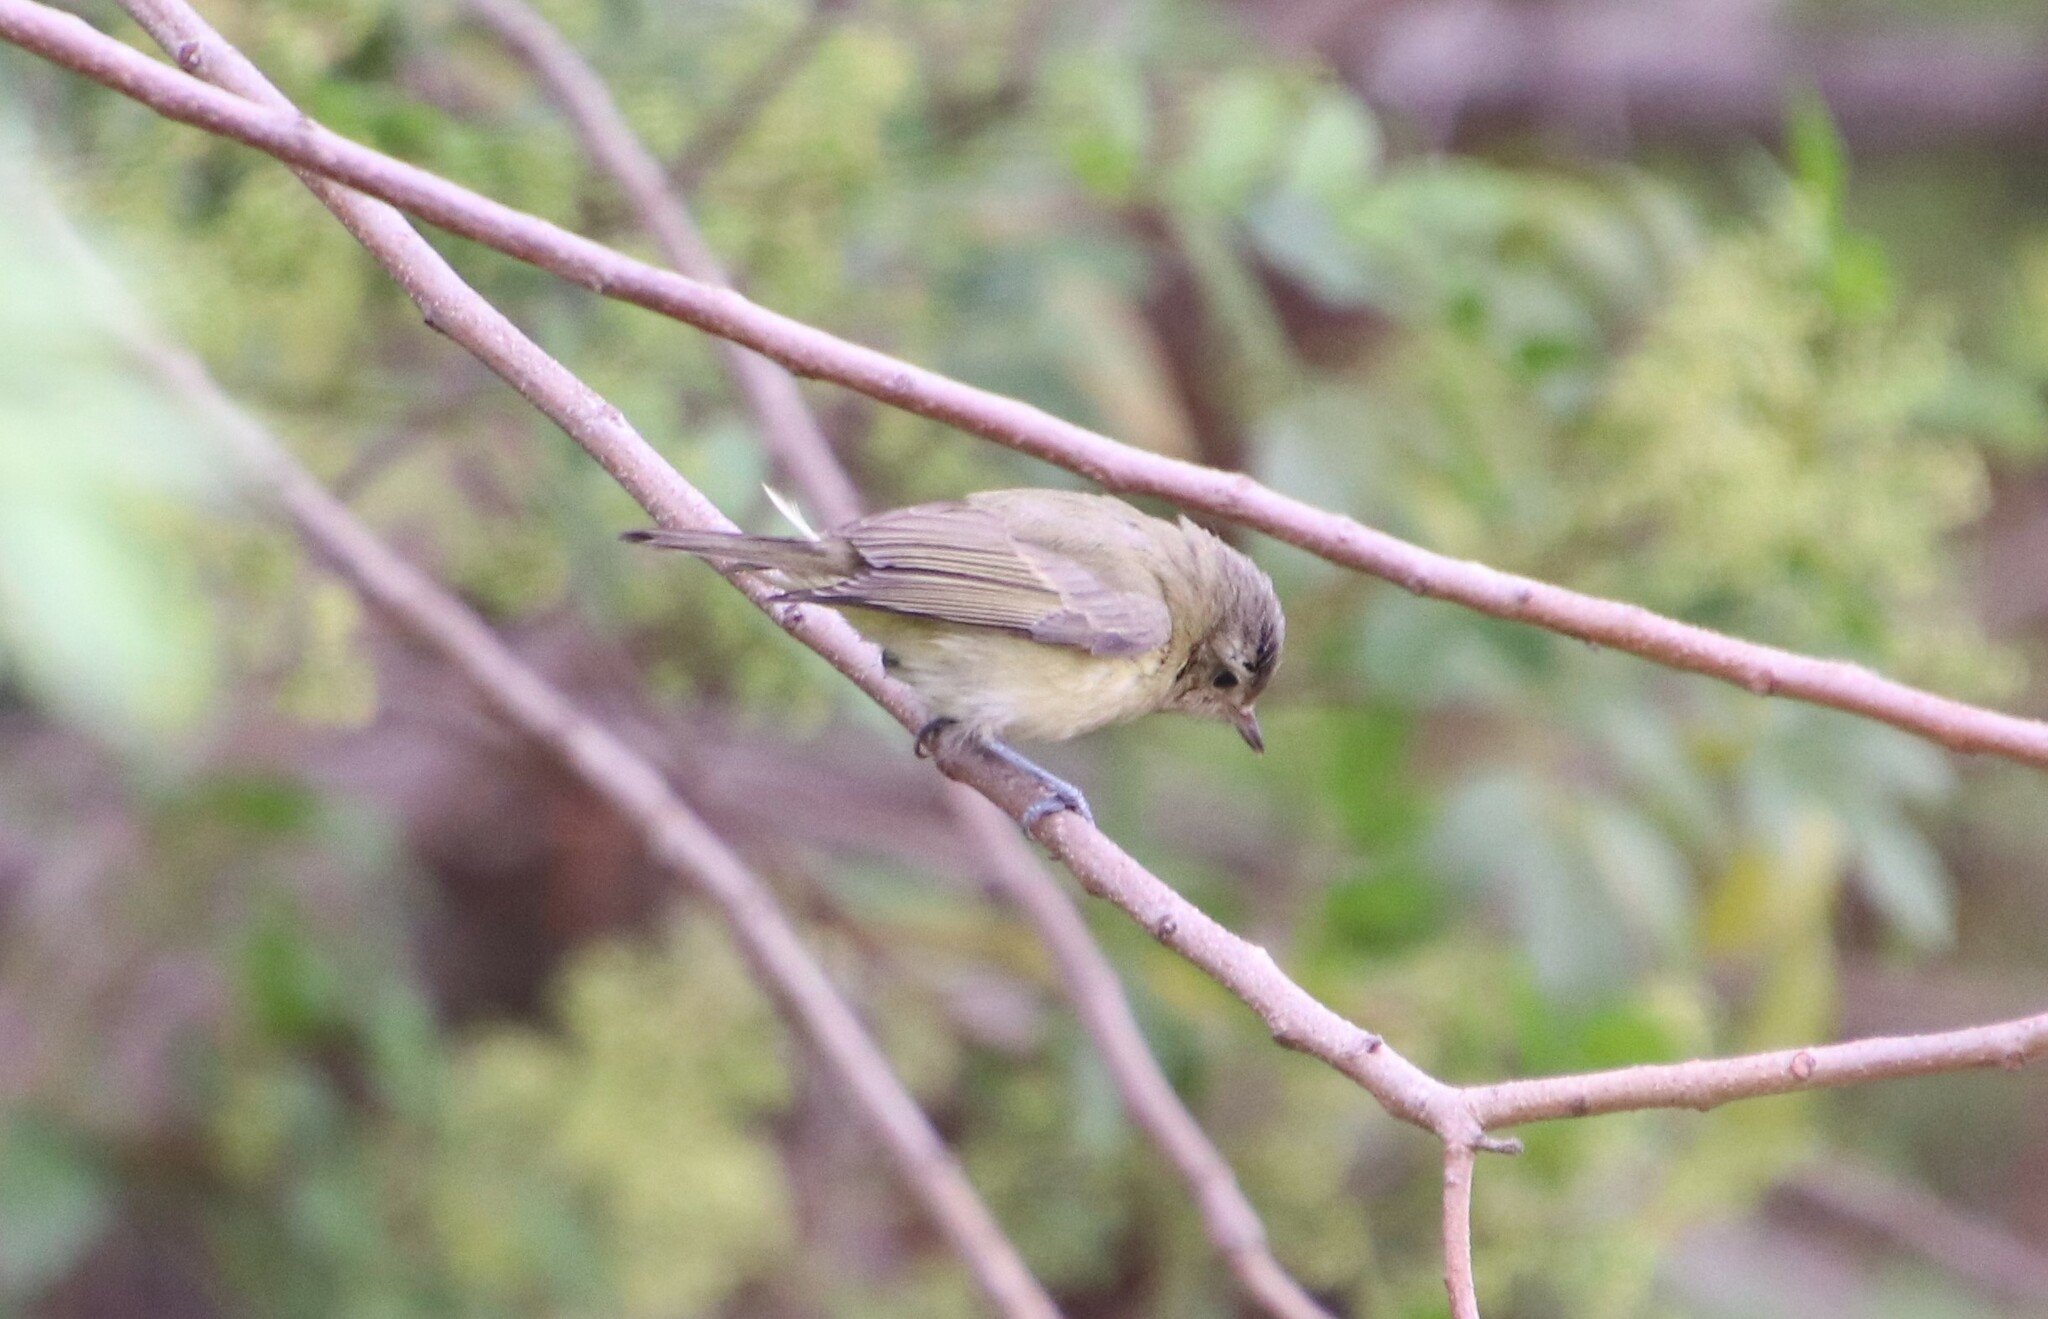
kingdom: Animalia
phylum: Chordata
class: Aves
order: Passeriformes
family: Vireonidae
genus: Vireo
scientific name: Vireo gilvus
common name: Warbling vireo
